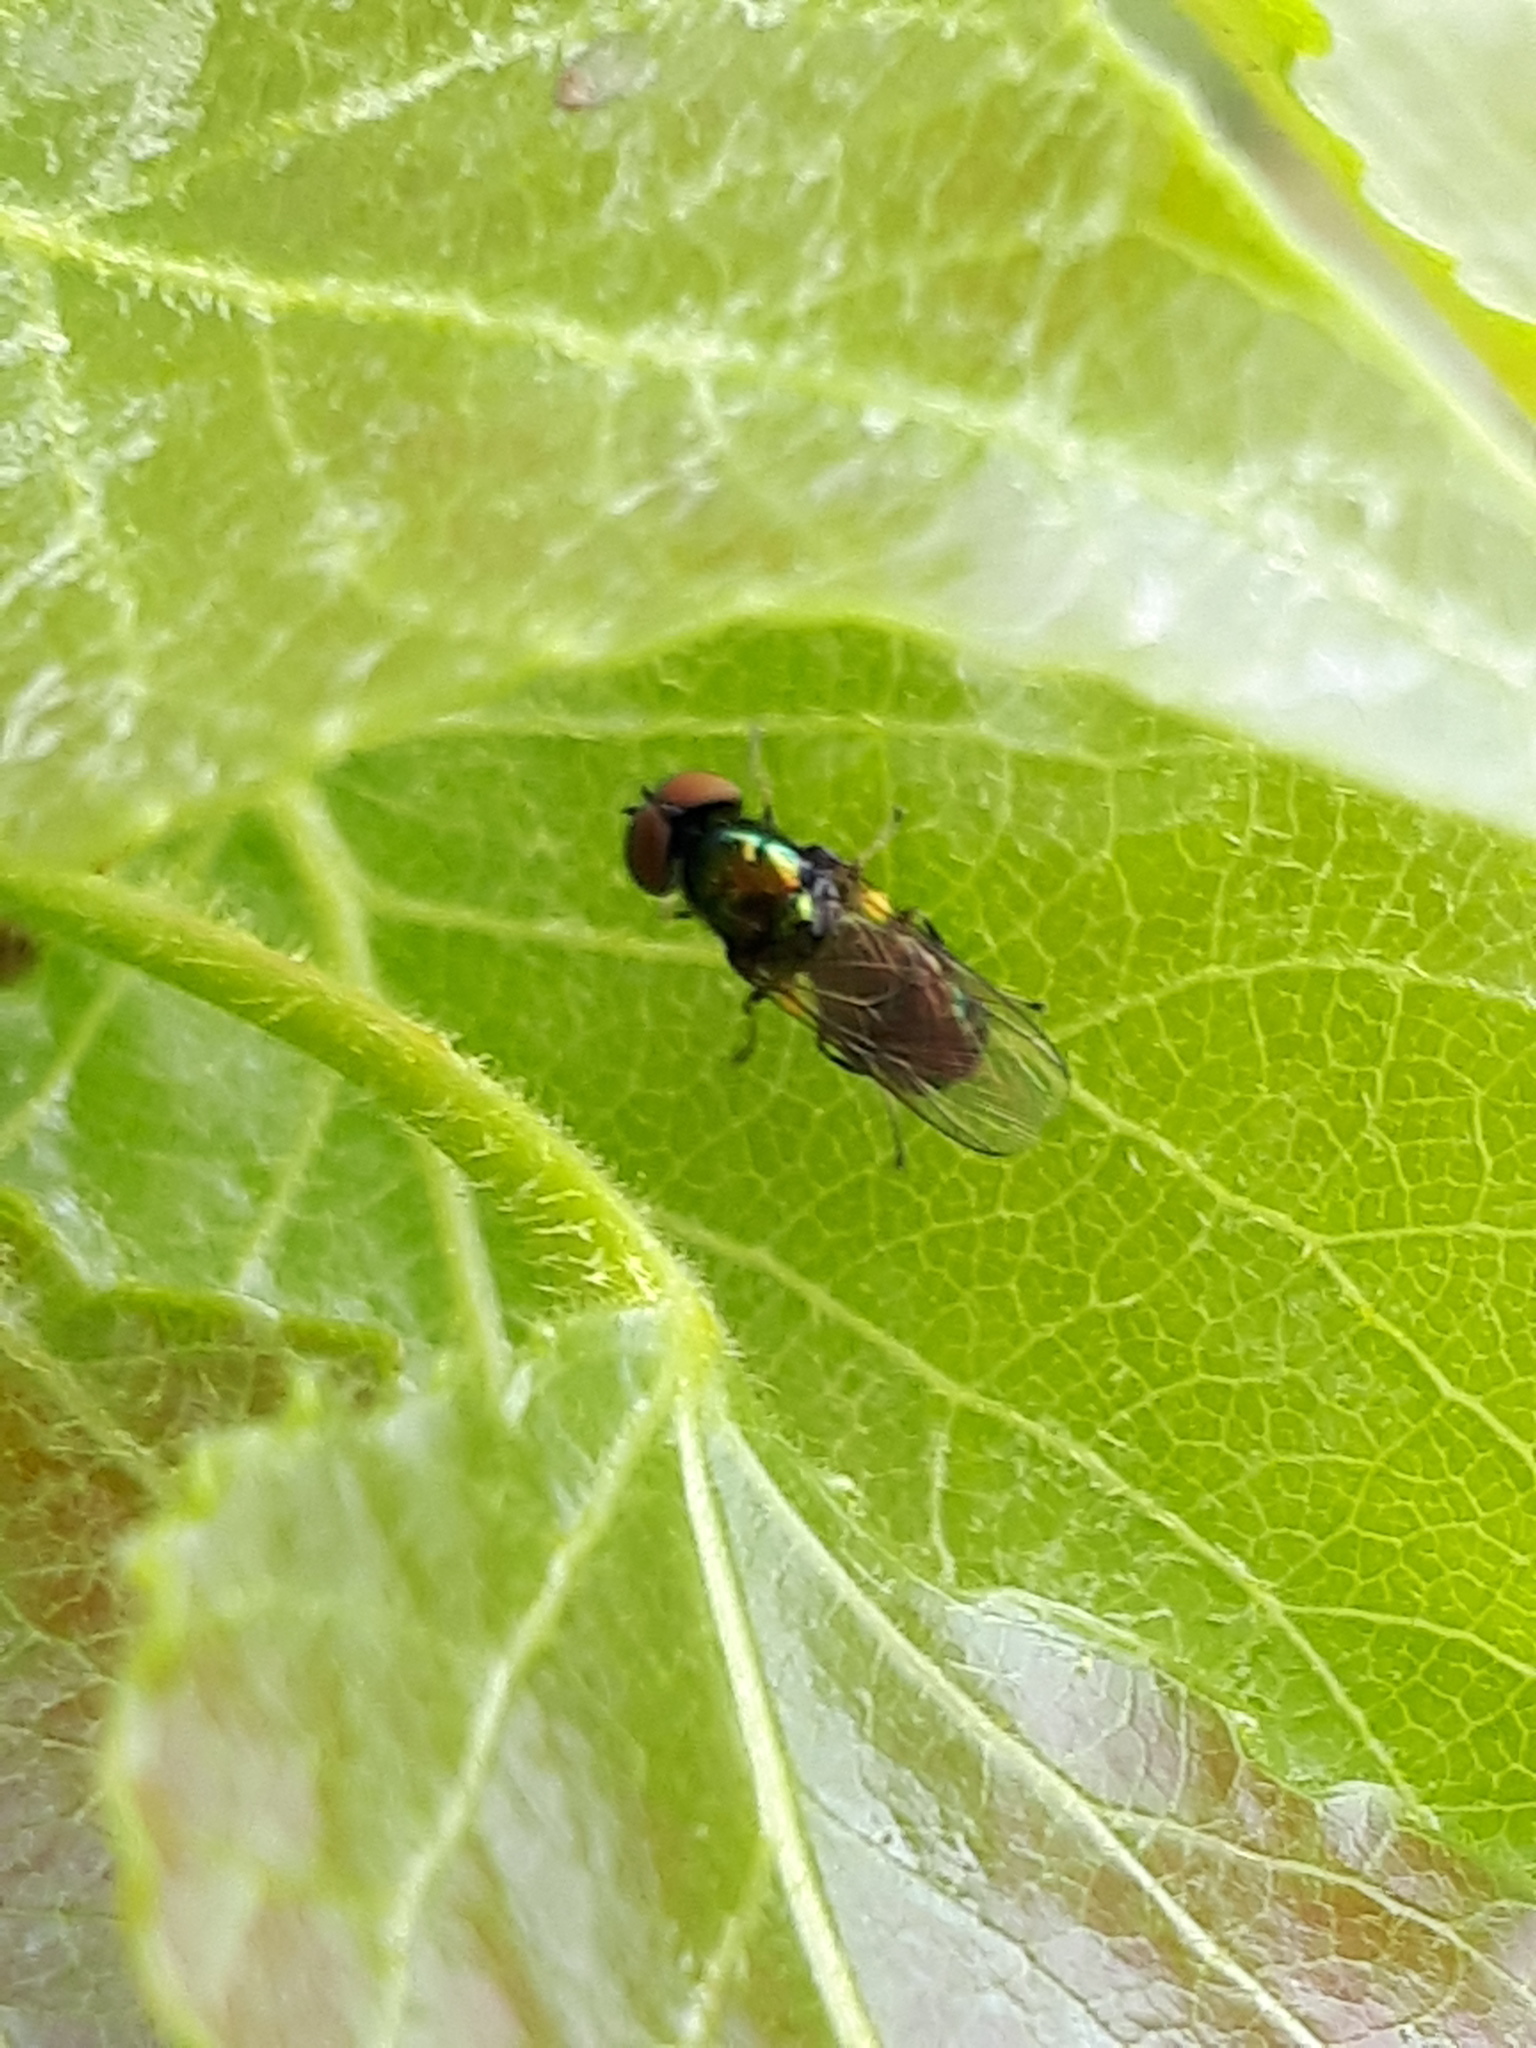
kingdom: Animalia
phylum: Arthropoda
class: Insecta
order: Diptera
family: Stratiomyidae
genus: Microchrysa
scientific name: Microchrysa polita
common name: Black-horned gem
